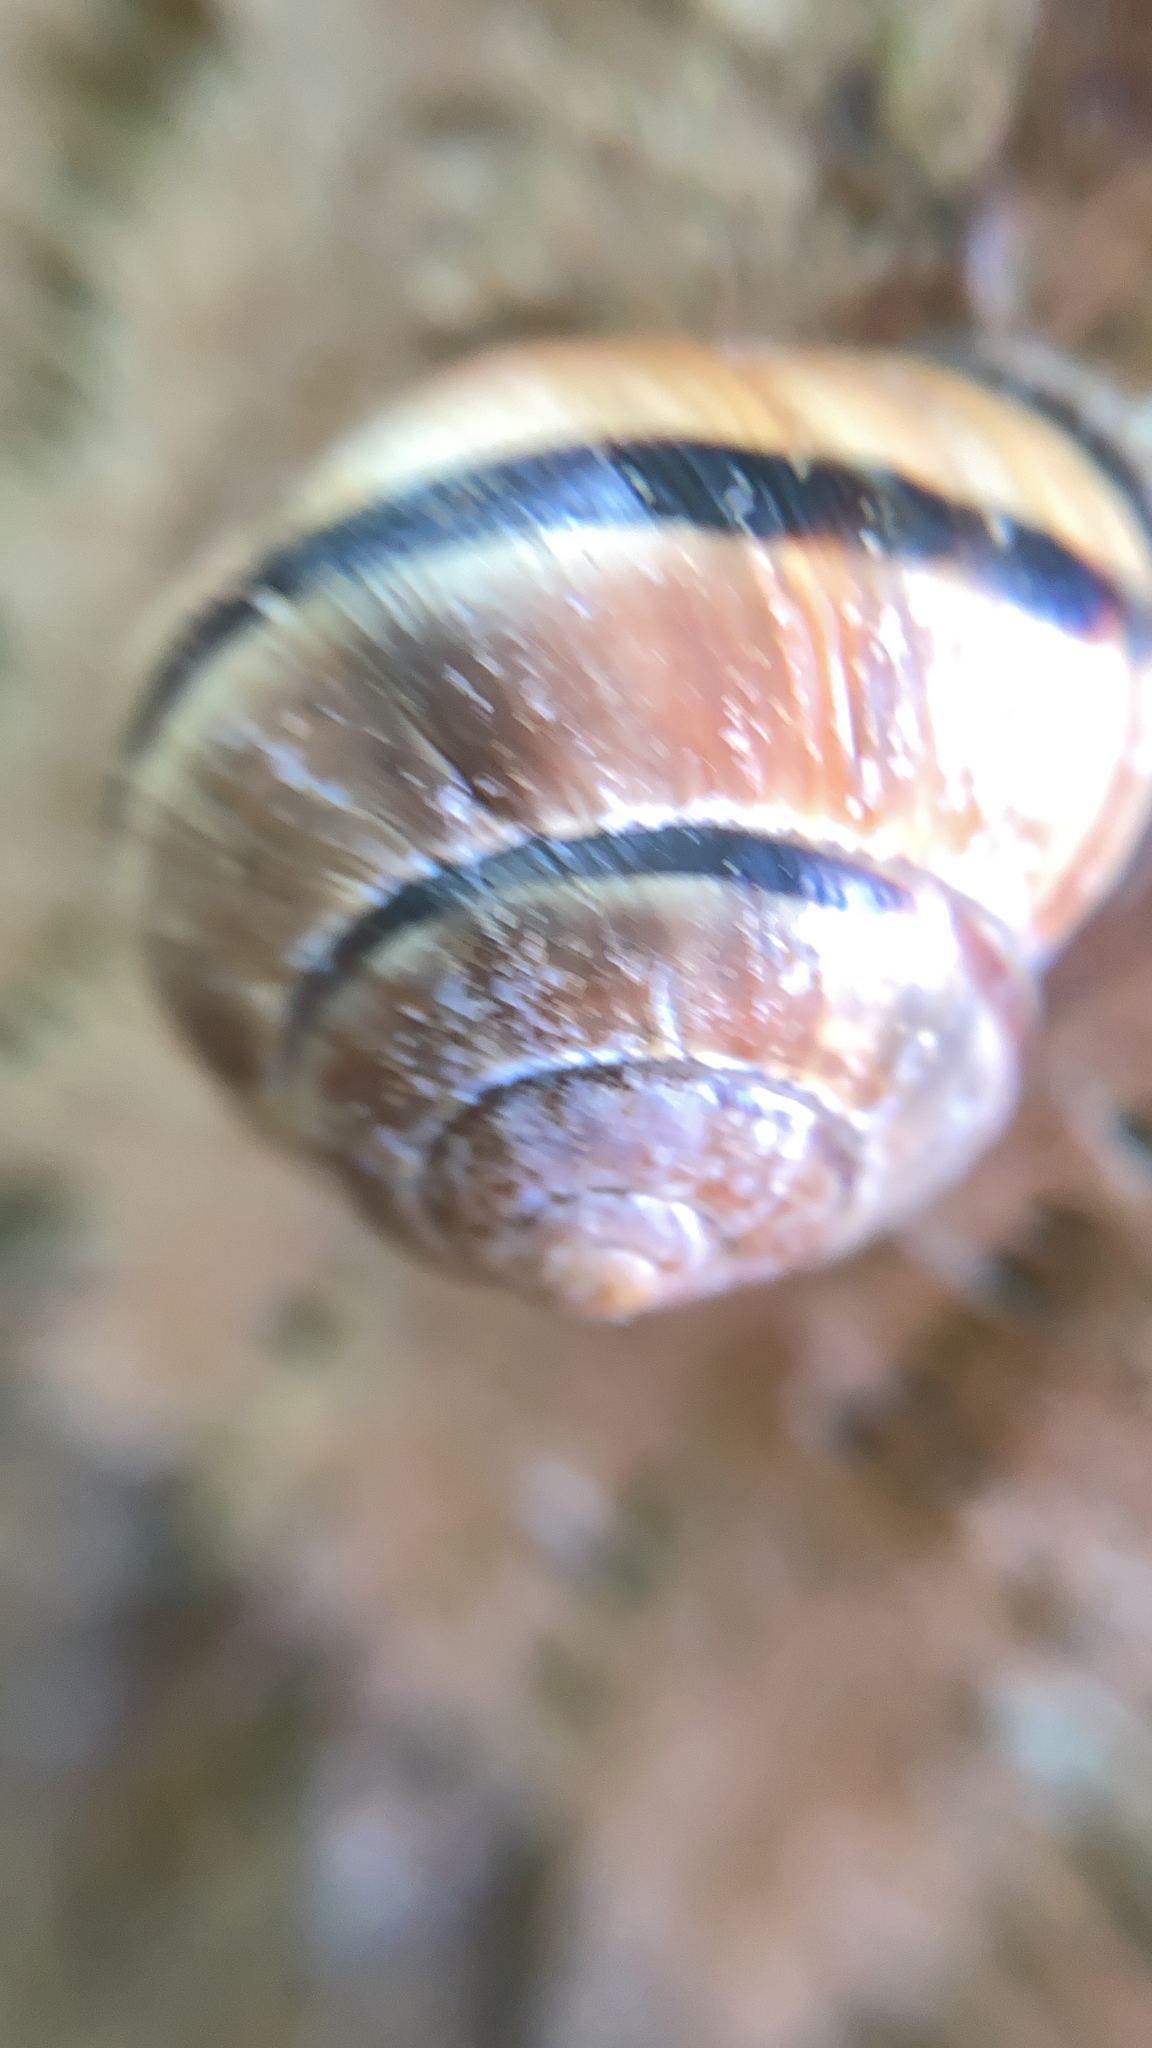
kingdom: Animalia
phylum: Mollusca
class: Gastropoda
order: Stylommatophora
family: Helicidae
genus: Cepaea
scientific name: Cepaea nemoralis
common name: Grovesnail
